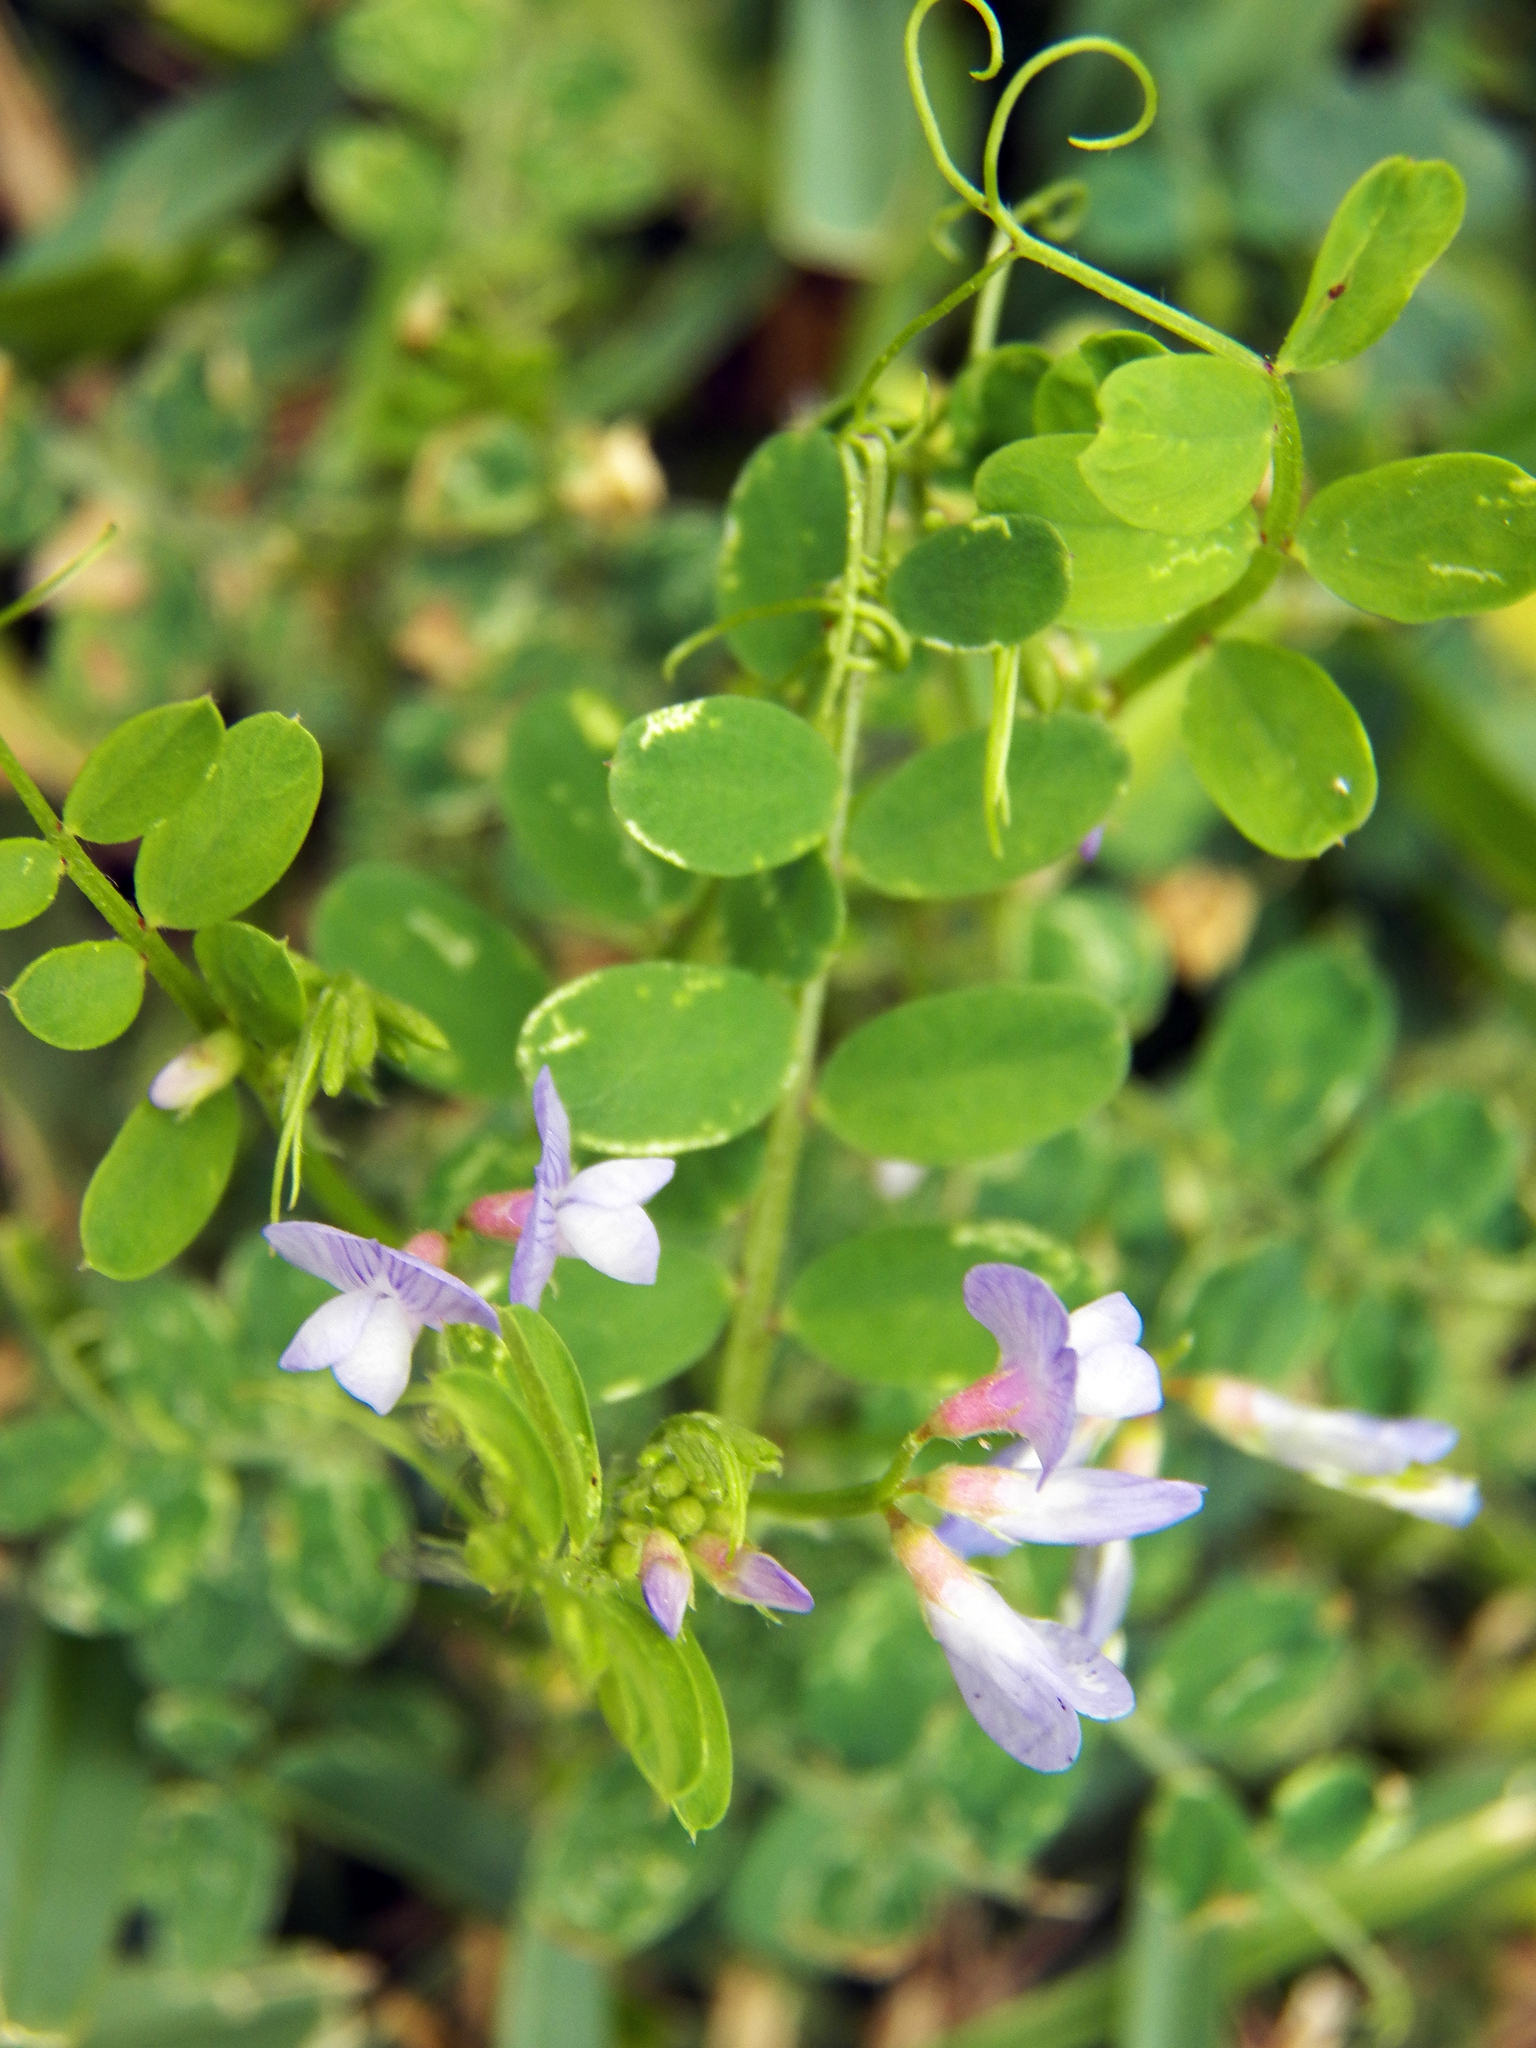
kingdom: Plantae
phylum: Tracheophyta
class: Magnoliopsida
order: Fabales
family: Fabaceae
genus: Vicia
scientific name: Vicia ludoviciana
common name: Louisiana vetch
